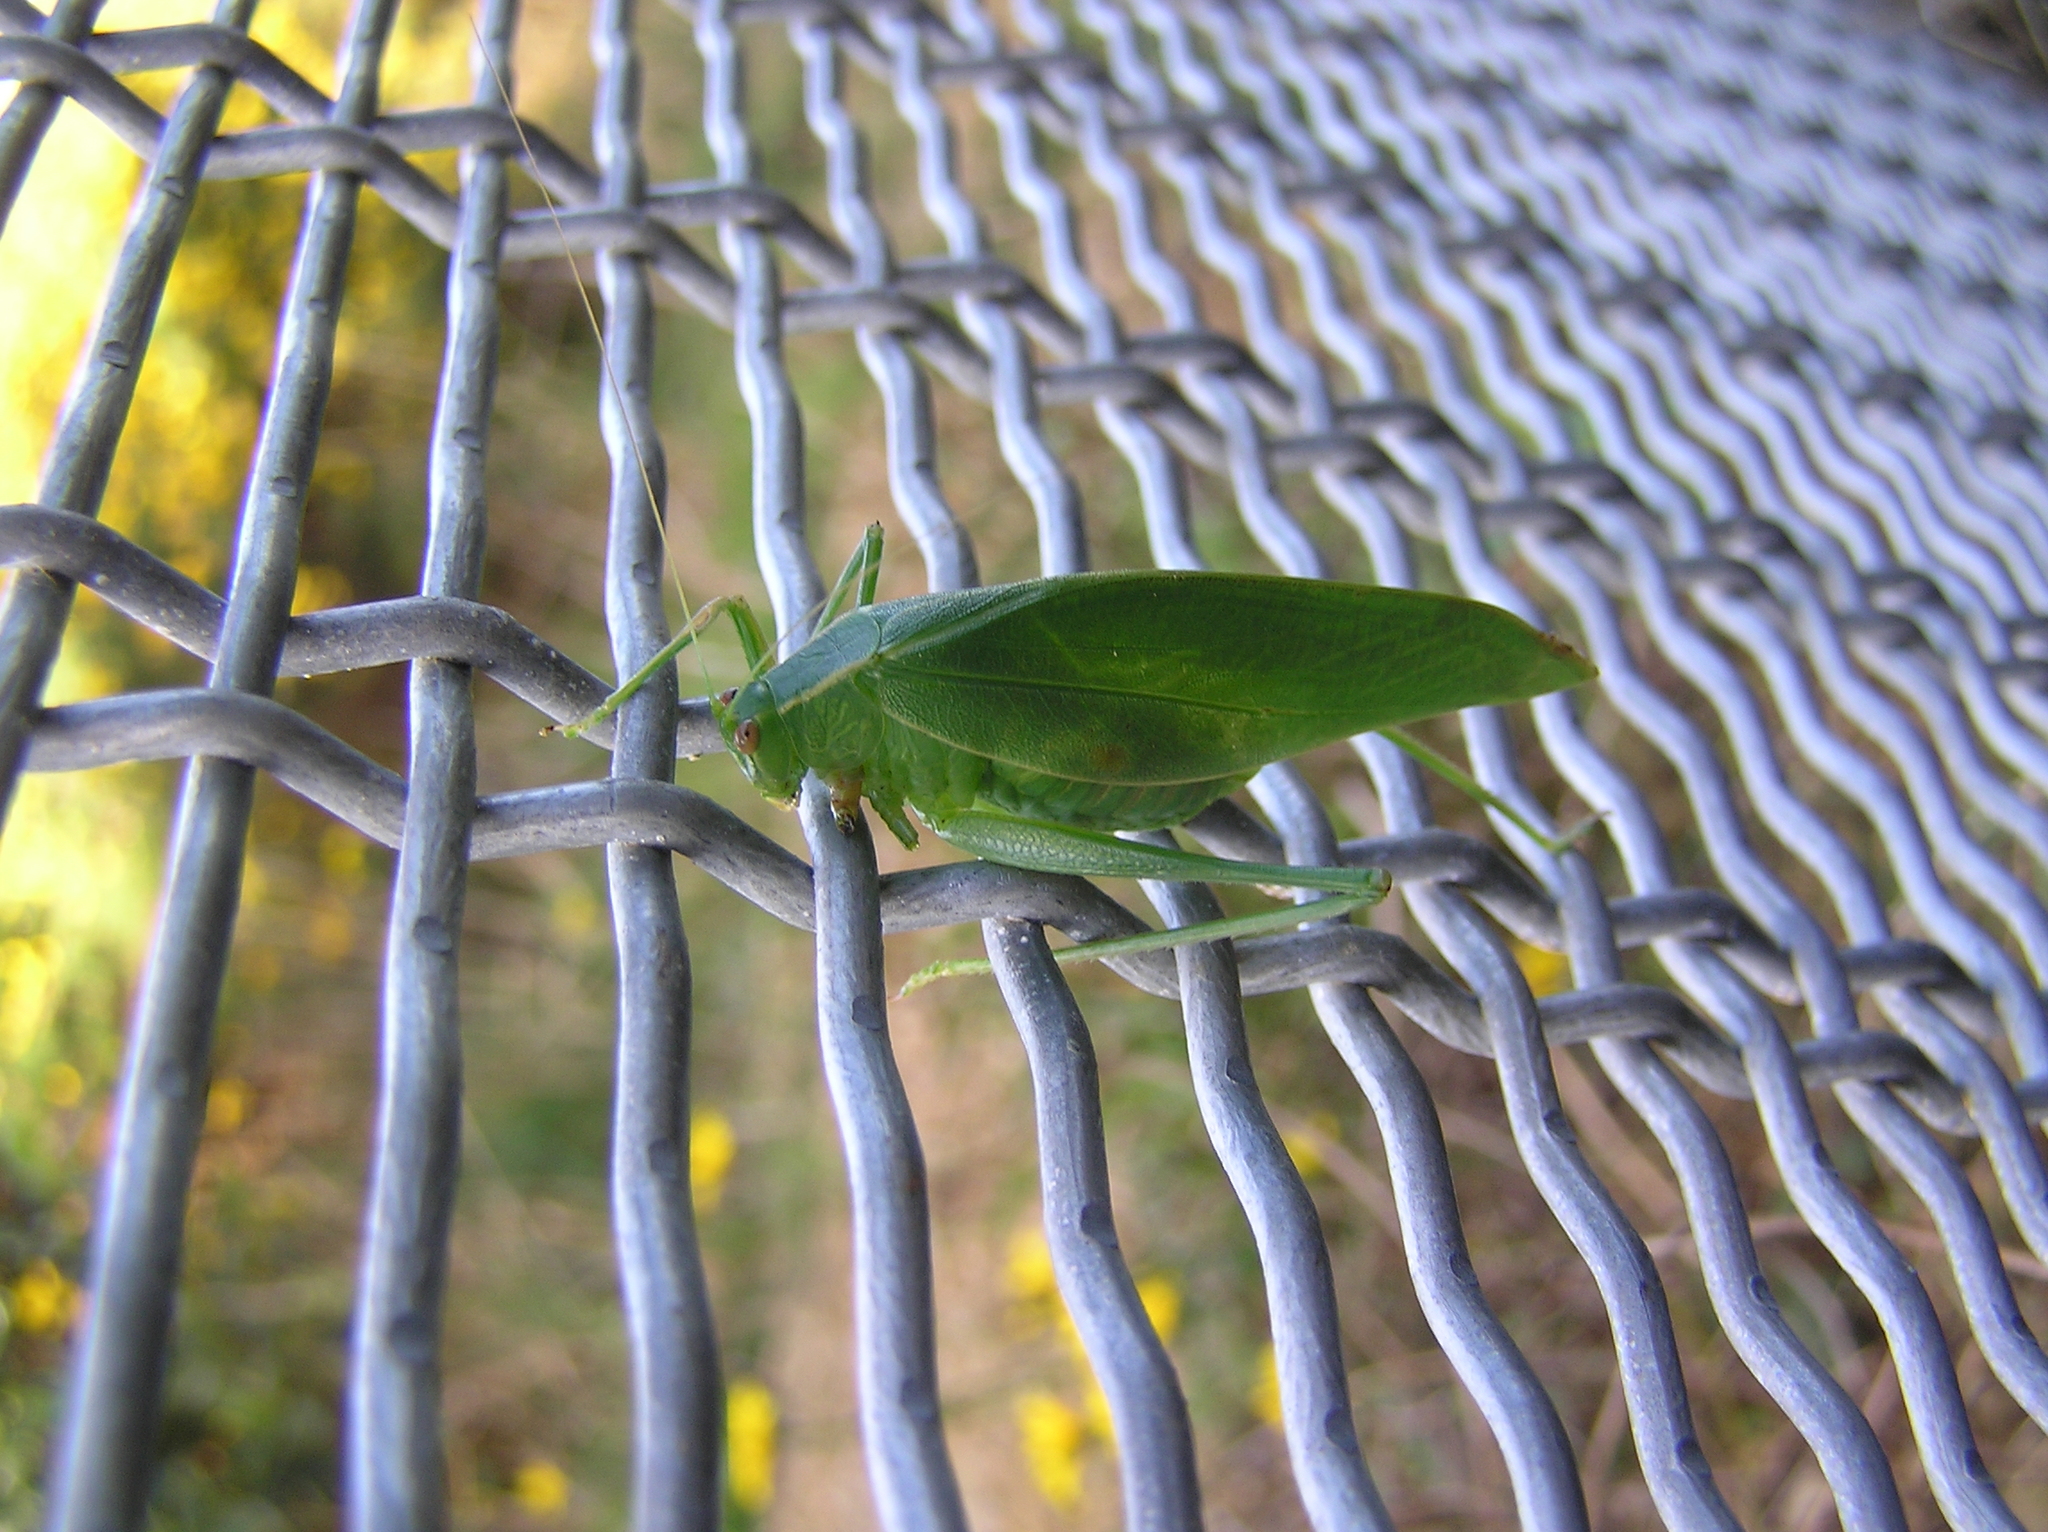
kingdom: Animalia
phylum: Arthropoda
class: Insecta
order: Orthoptera
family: Tettigoniidae
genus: Caedicia
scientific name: Caedicia simplex
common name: Common garden katydid
